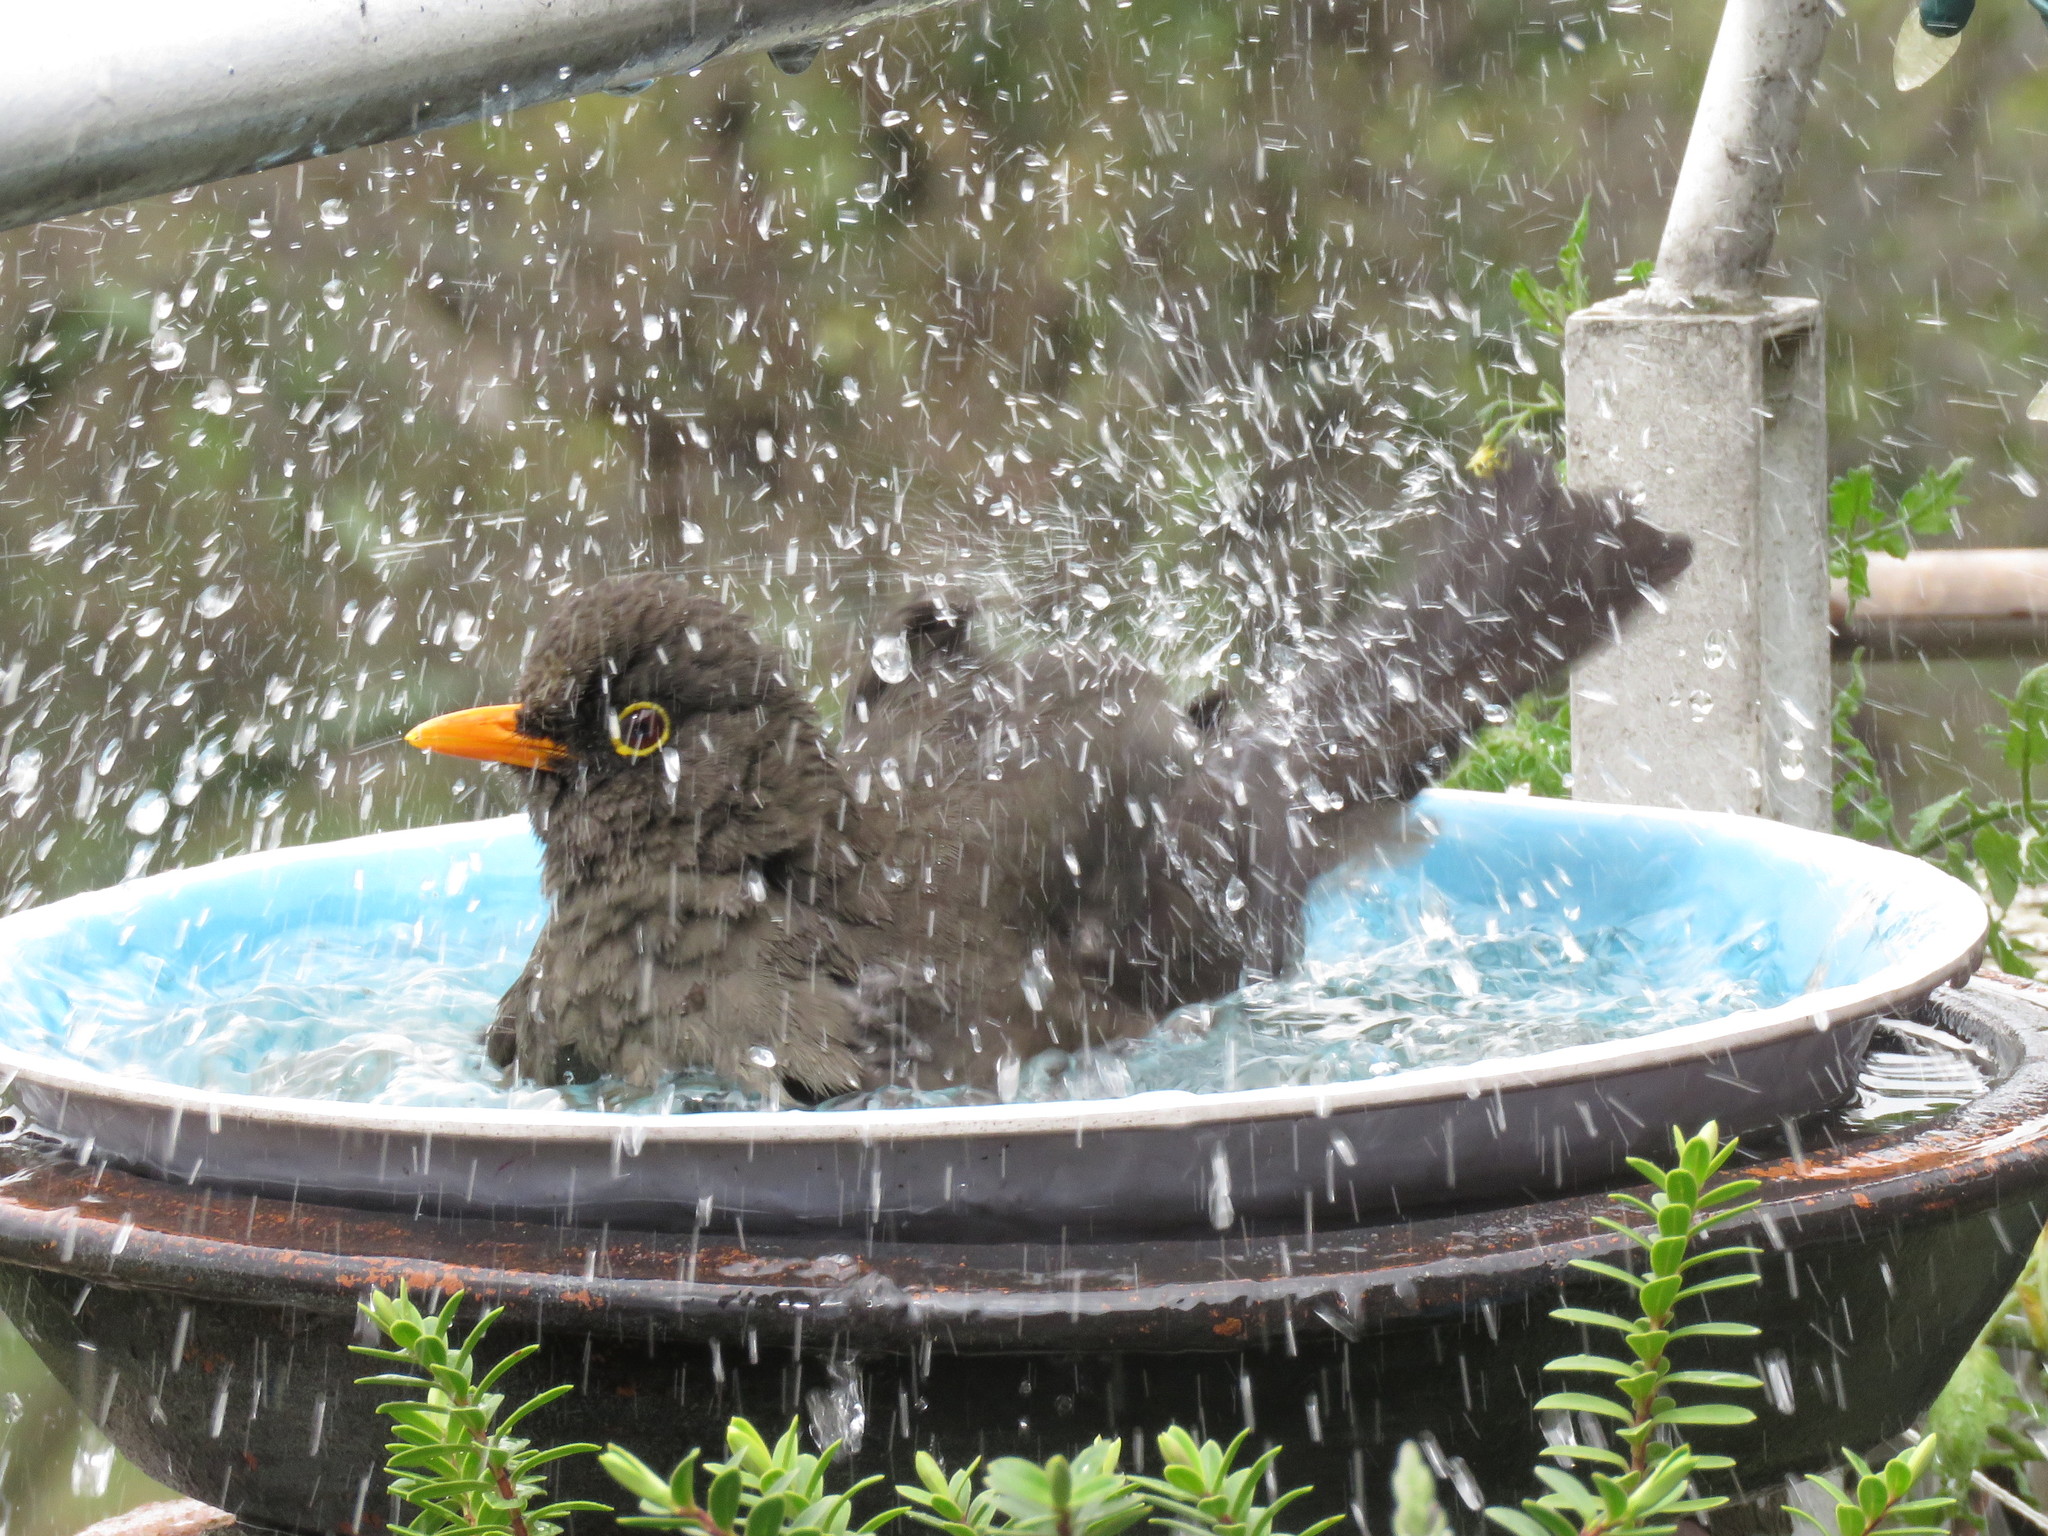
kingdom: Animalia
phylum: Chordata
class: Aves
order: Passeriformes
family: Turdidae
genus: Turdus
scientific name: Turdus fuscater
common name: Great thrush
